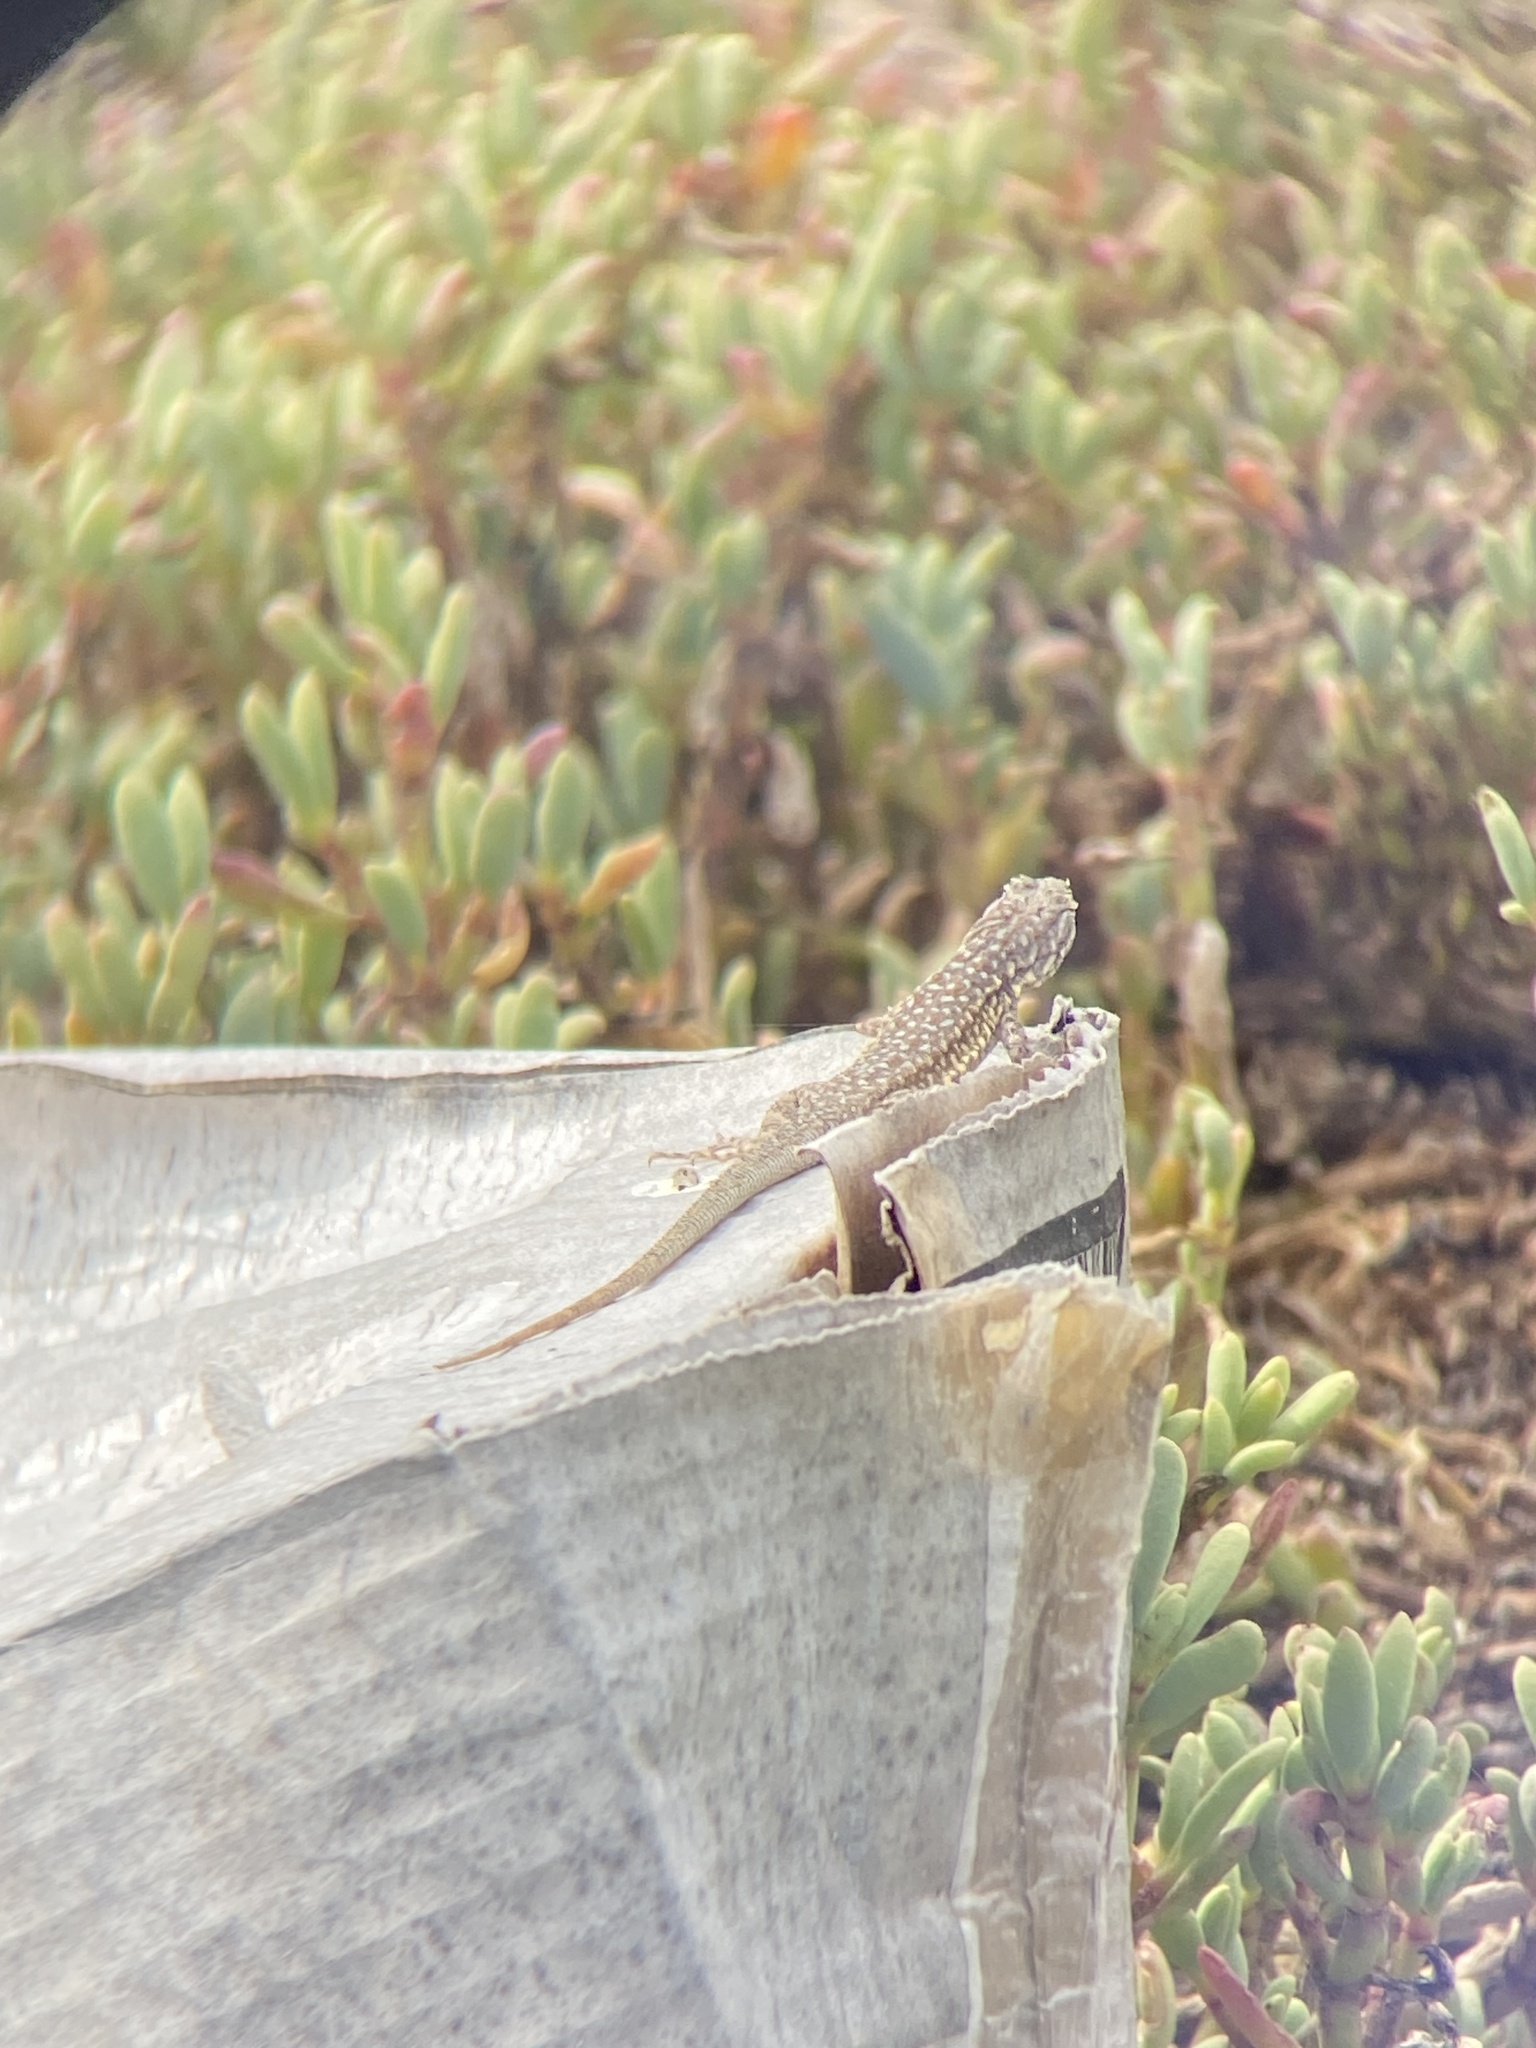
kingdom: Animalia
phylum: Chordata
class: Squamata
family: Phrynosomatidae
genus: Uta
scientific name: Uta stansburiana
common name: Side-blotched lizard
